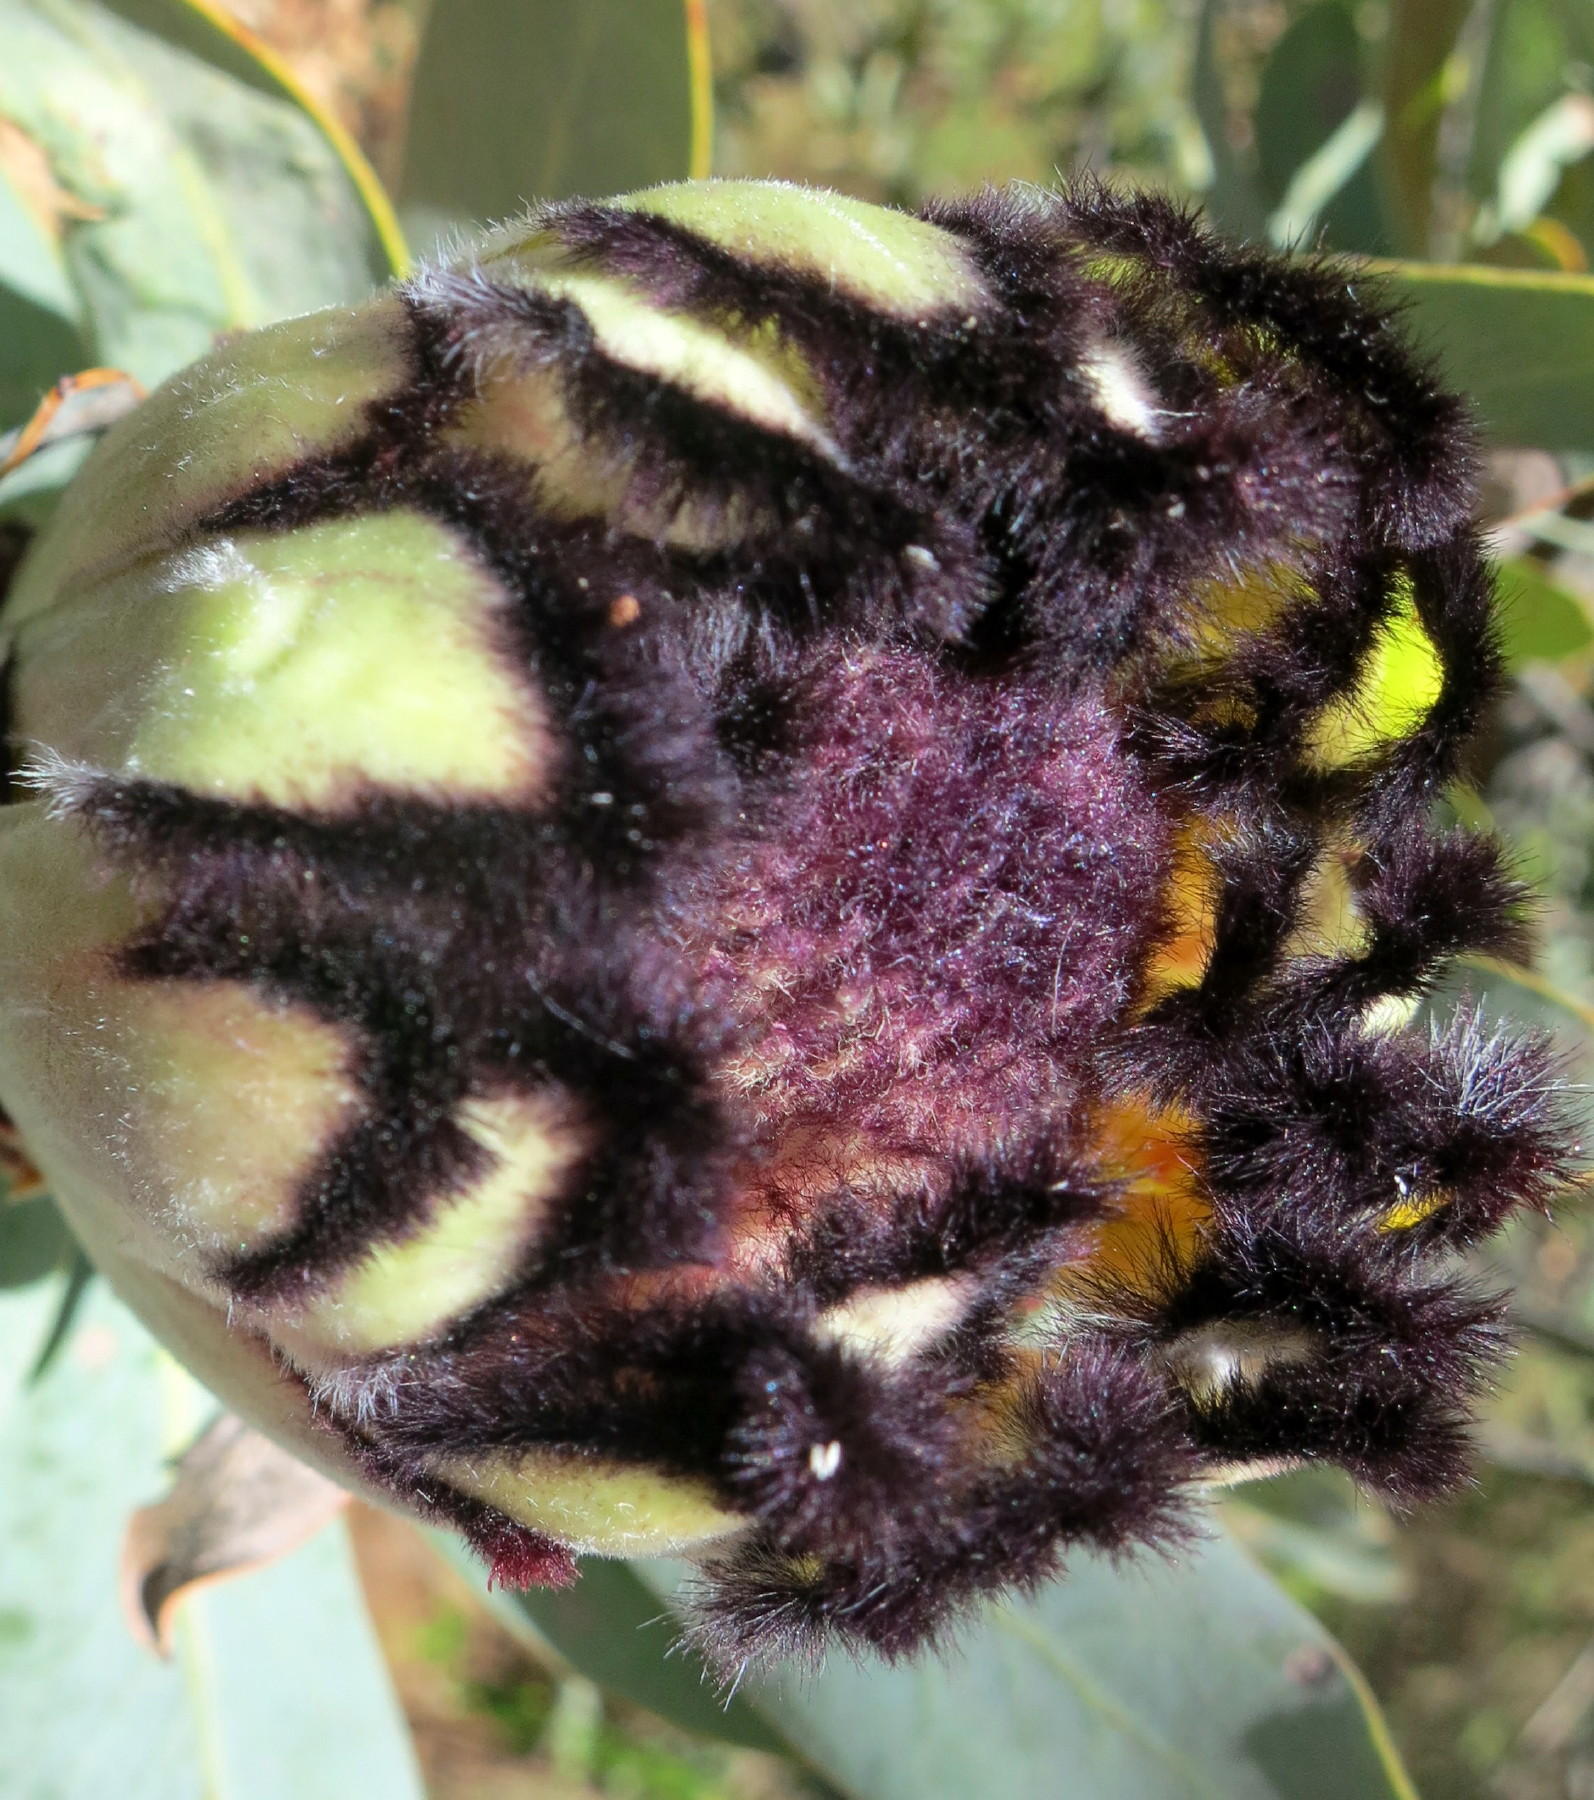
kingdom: Plantae
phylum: Tracheophyta
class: Magnoliopsida
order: Proteales
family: Proteaceae
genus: Protea
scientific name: Protea laurifolia
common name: Grey-leaf sugarbsh
